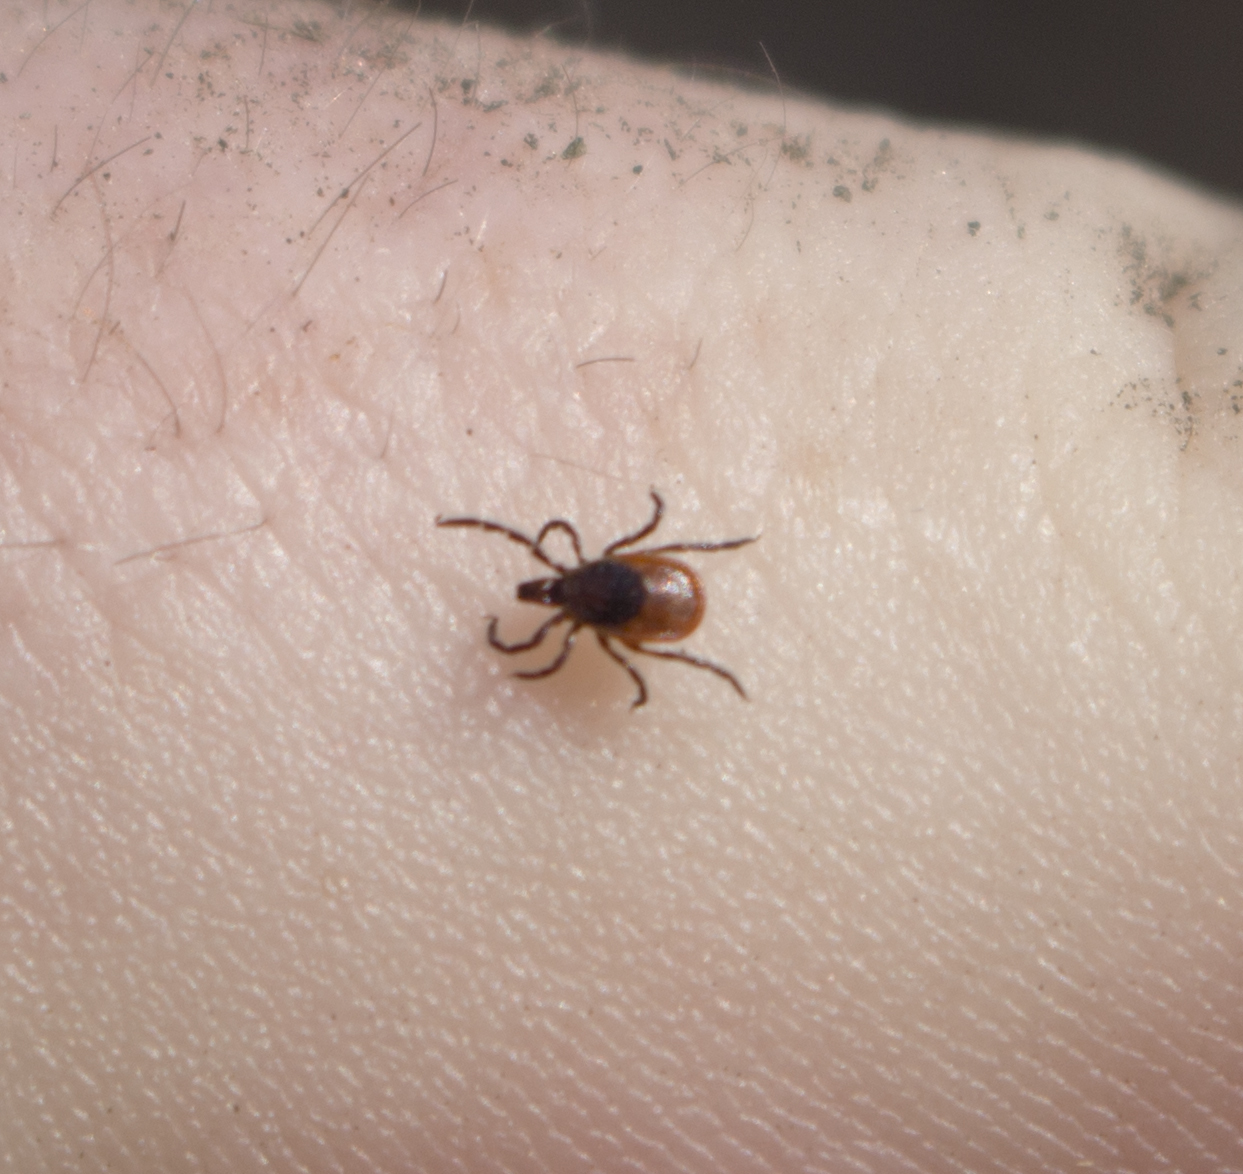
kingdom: Animalia
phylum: Arthropoda
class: Arachnida
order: Ixodida
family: Ixodidae
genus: Ixodes
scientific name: Ixodes scapularis
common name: Black legged tick
